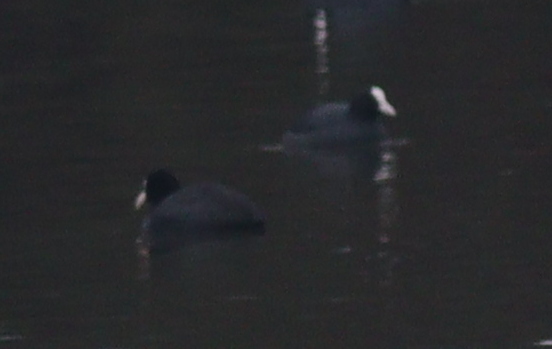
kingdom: Animalia
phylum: Chordata
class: Aves
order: Gruiformes
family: Rallidae
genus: Fulica
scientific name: Fulica atra
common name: Eurasian coot
